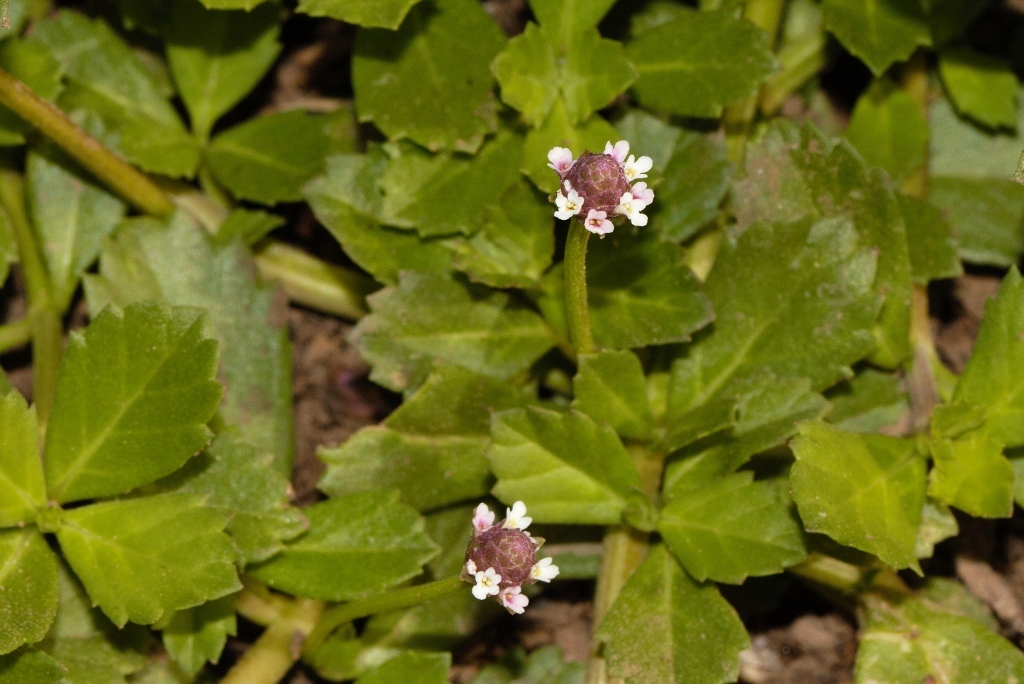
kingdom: Plantae
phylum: Tracheophyta
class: Magnoliopsida
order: Lamiales
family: Verbenaceae
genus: Phyla
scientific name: Phyla nodiflora
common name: Frogfruit
